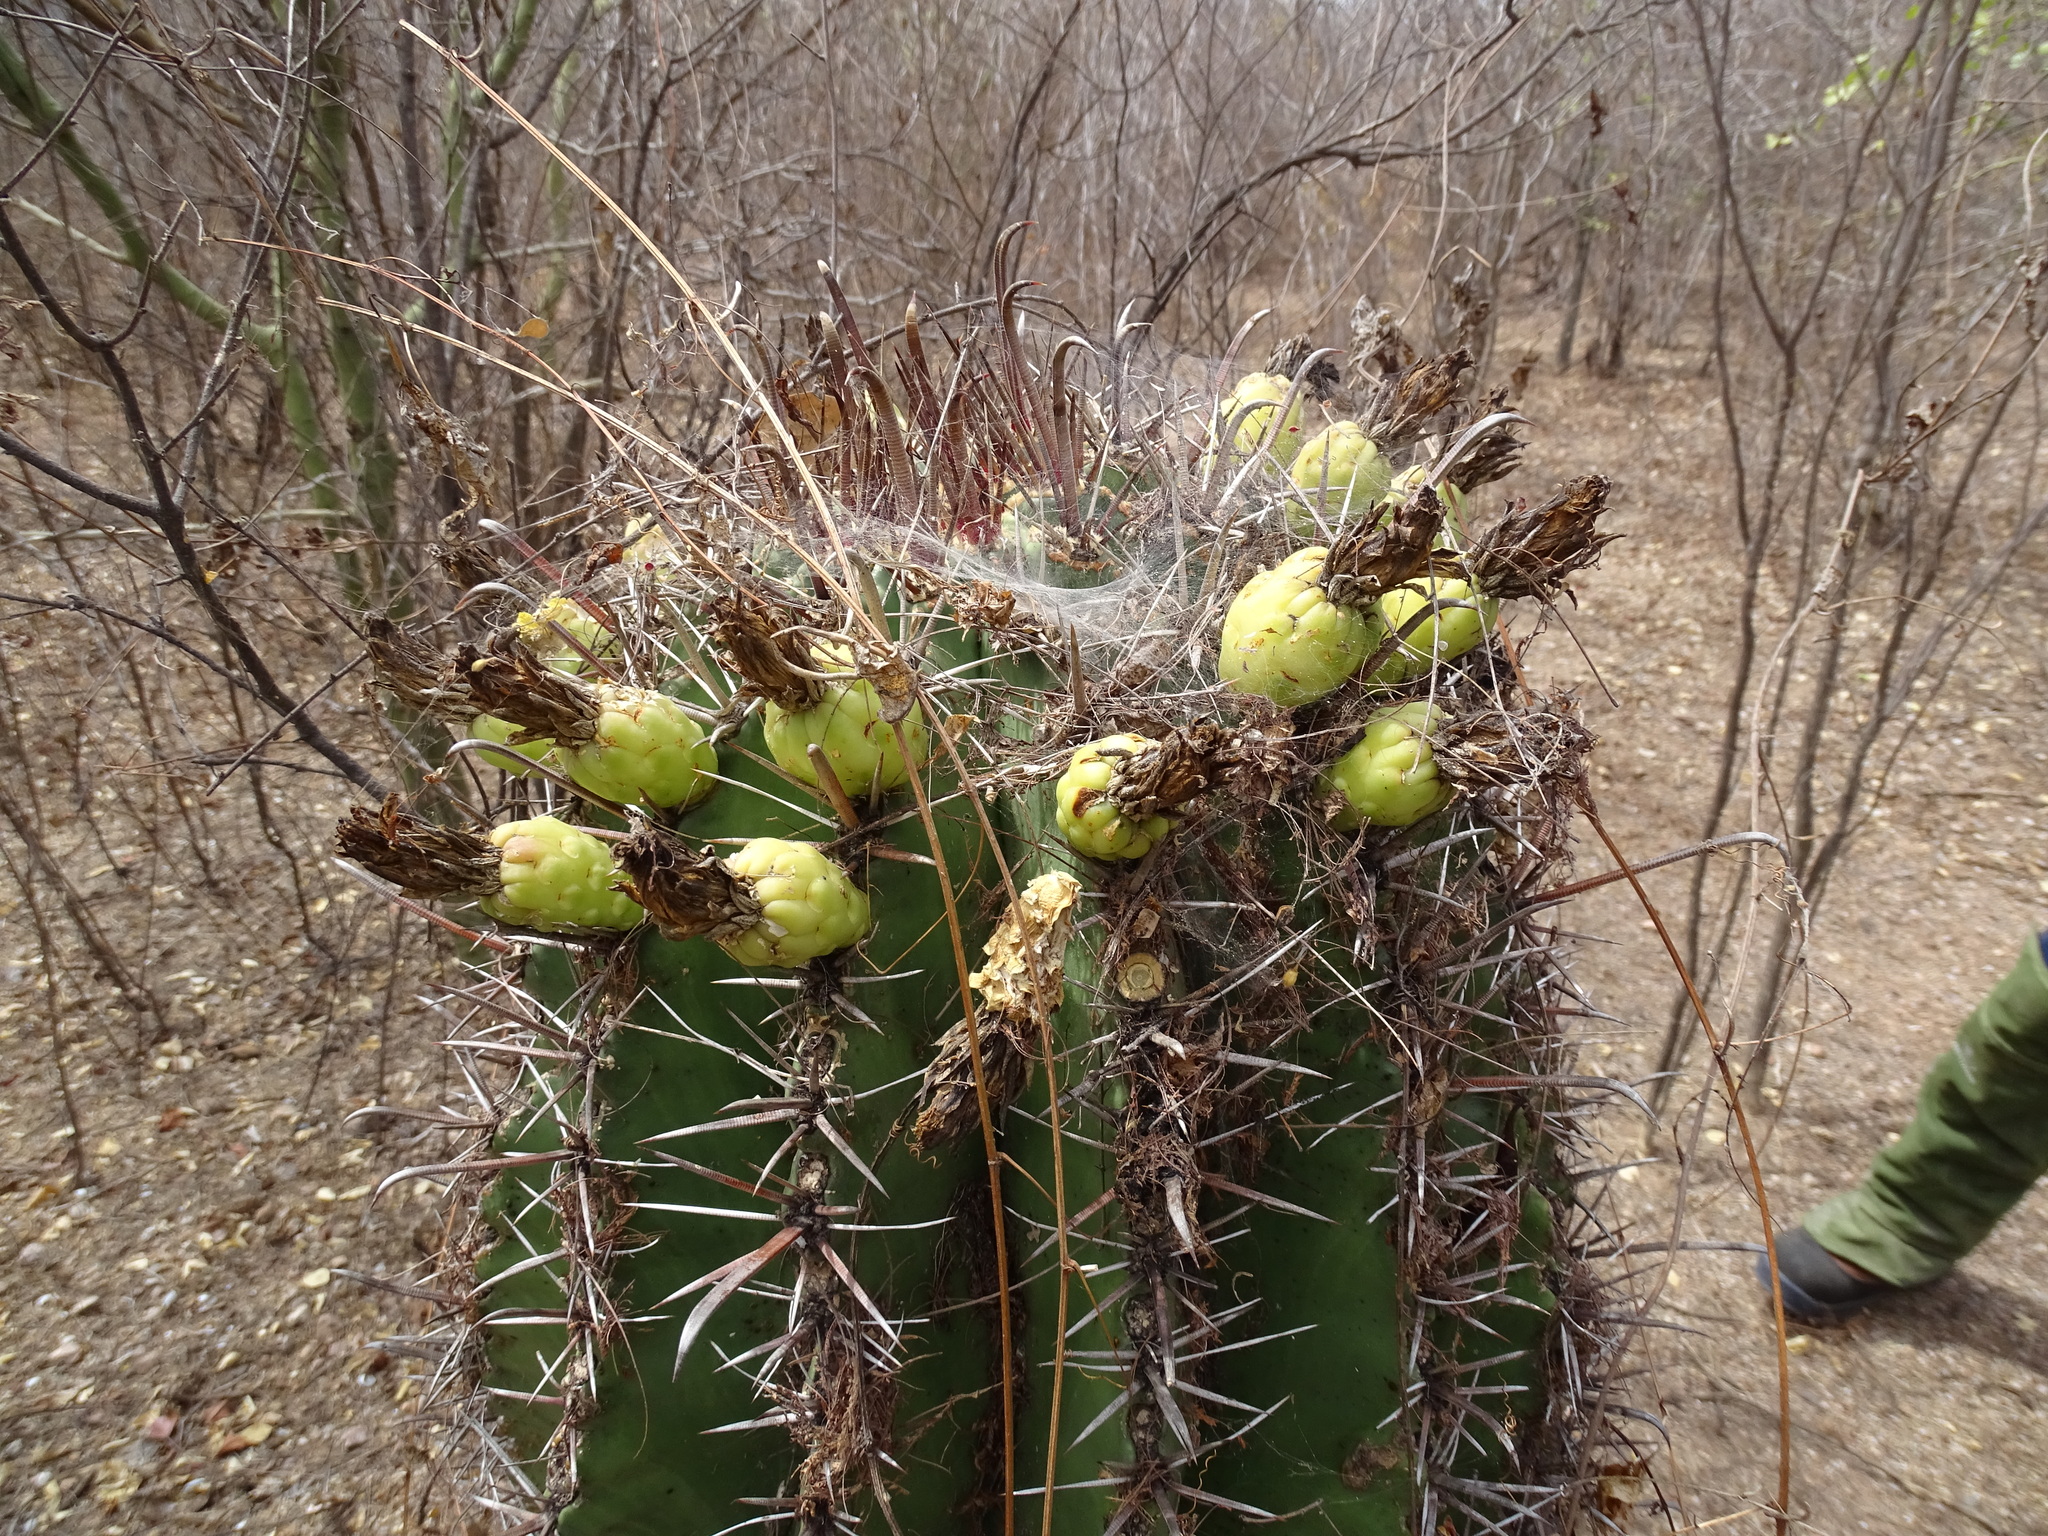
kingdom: Plantae
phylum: Tracheophyta
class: Magnoliopsida
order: Caryophyllales
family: Cactaceae
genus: Ferocactus
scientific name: Ferocactus wislizeni
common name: Candy barrel cactus
